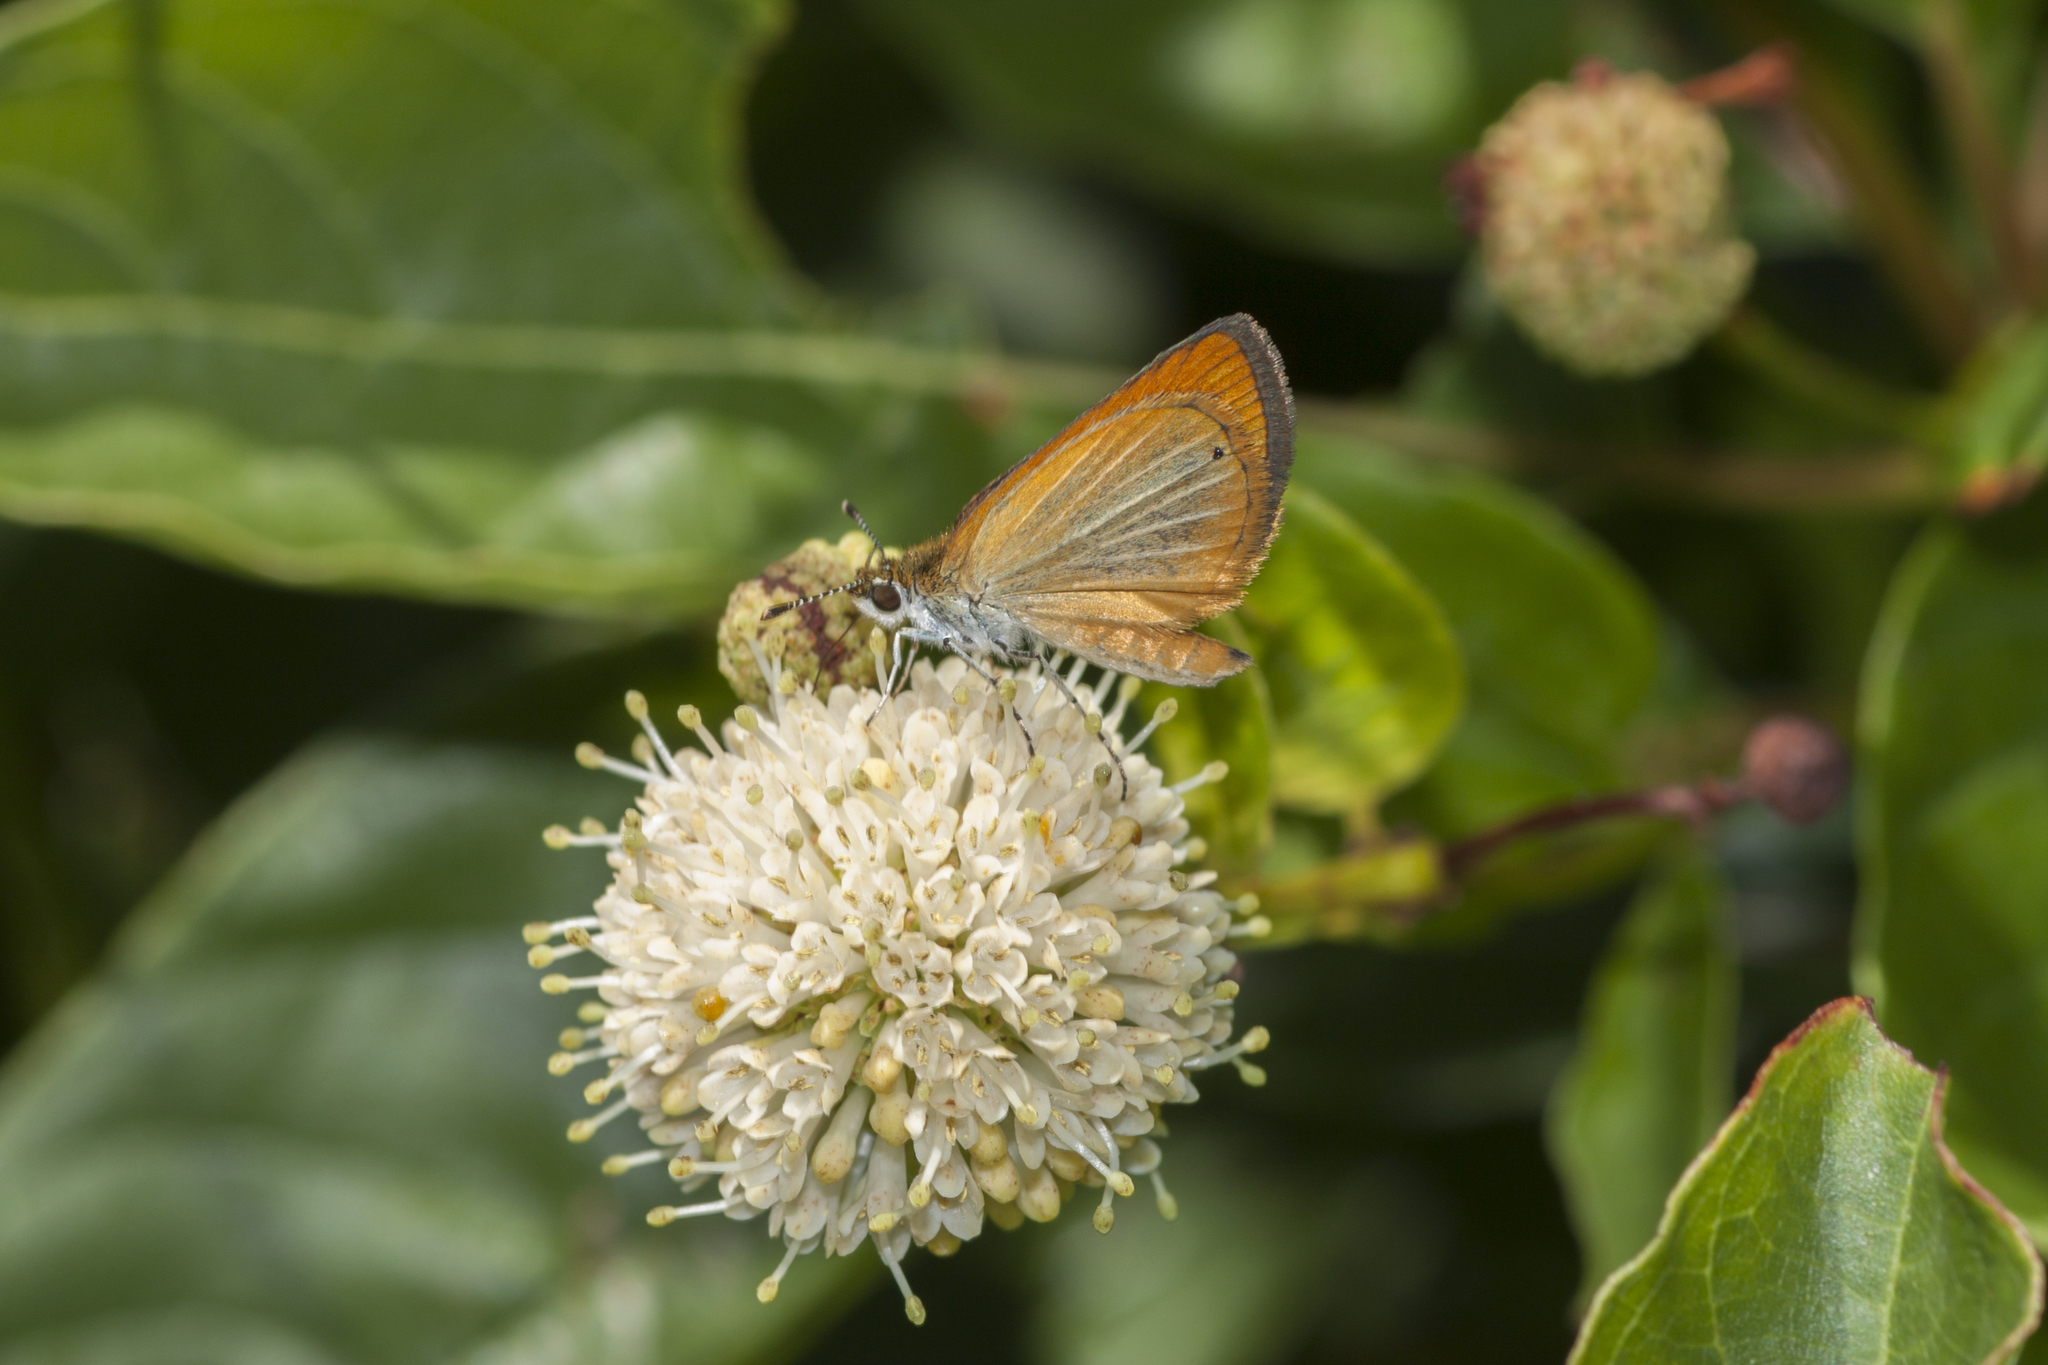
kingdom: Animalia
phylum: Arthropoda
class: Insecta
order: Lepidoptera
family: Hesperiidae
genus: Ancyloxypha
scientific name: Ancyloxypha numitor
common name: Least skipper
